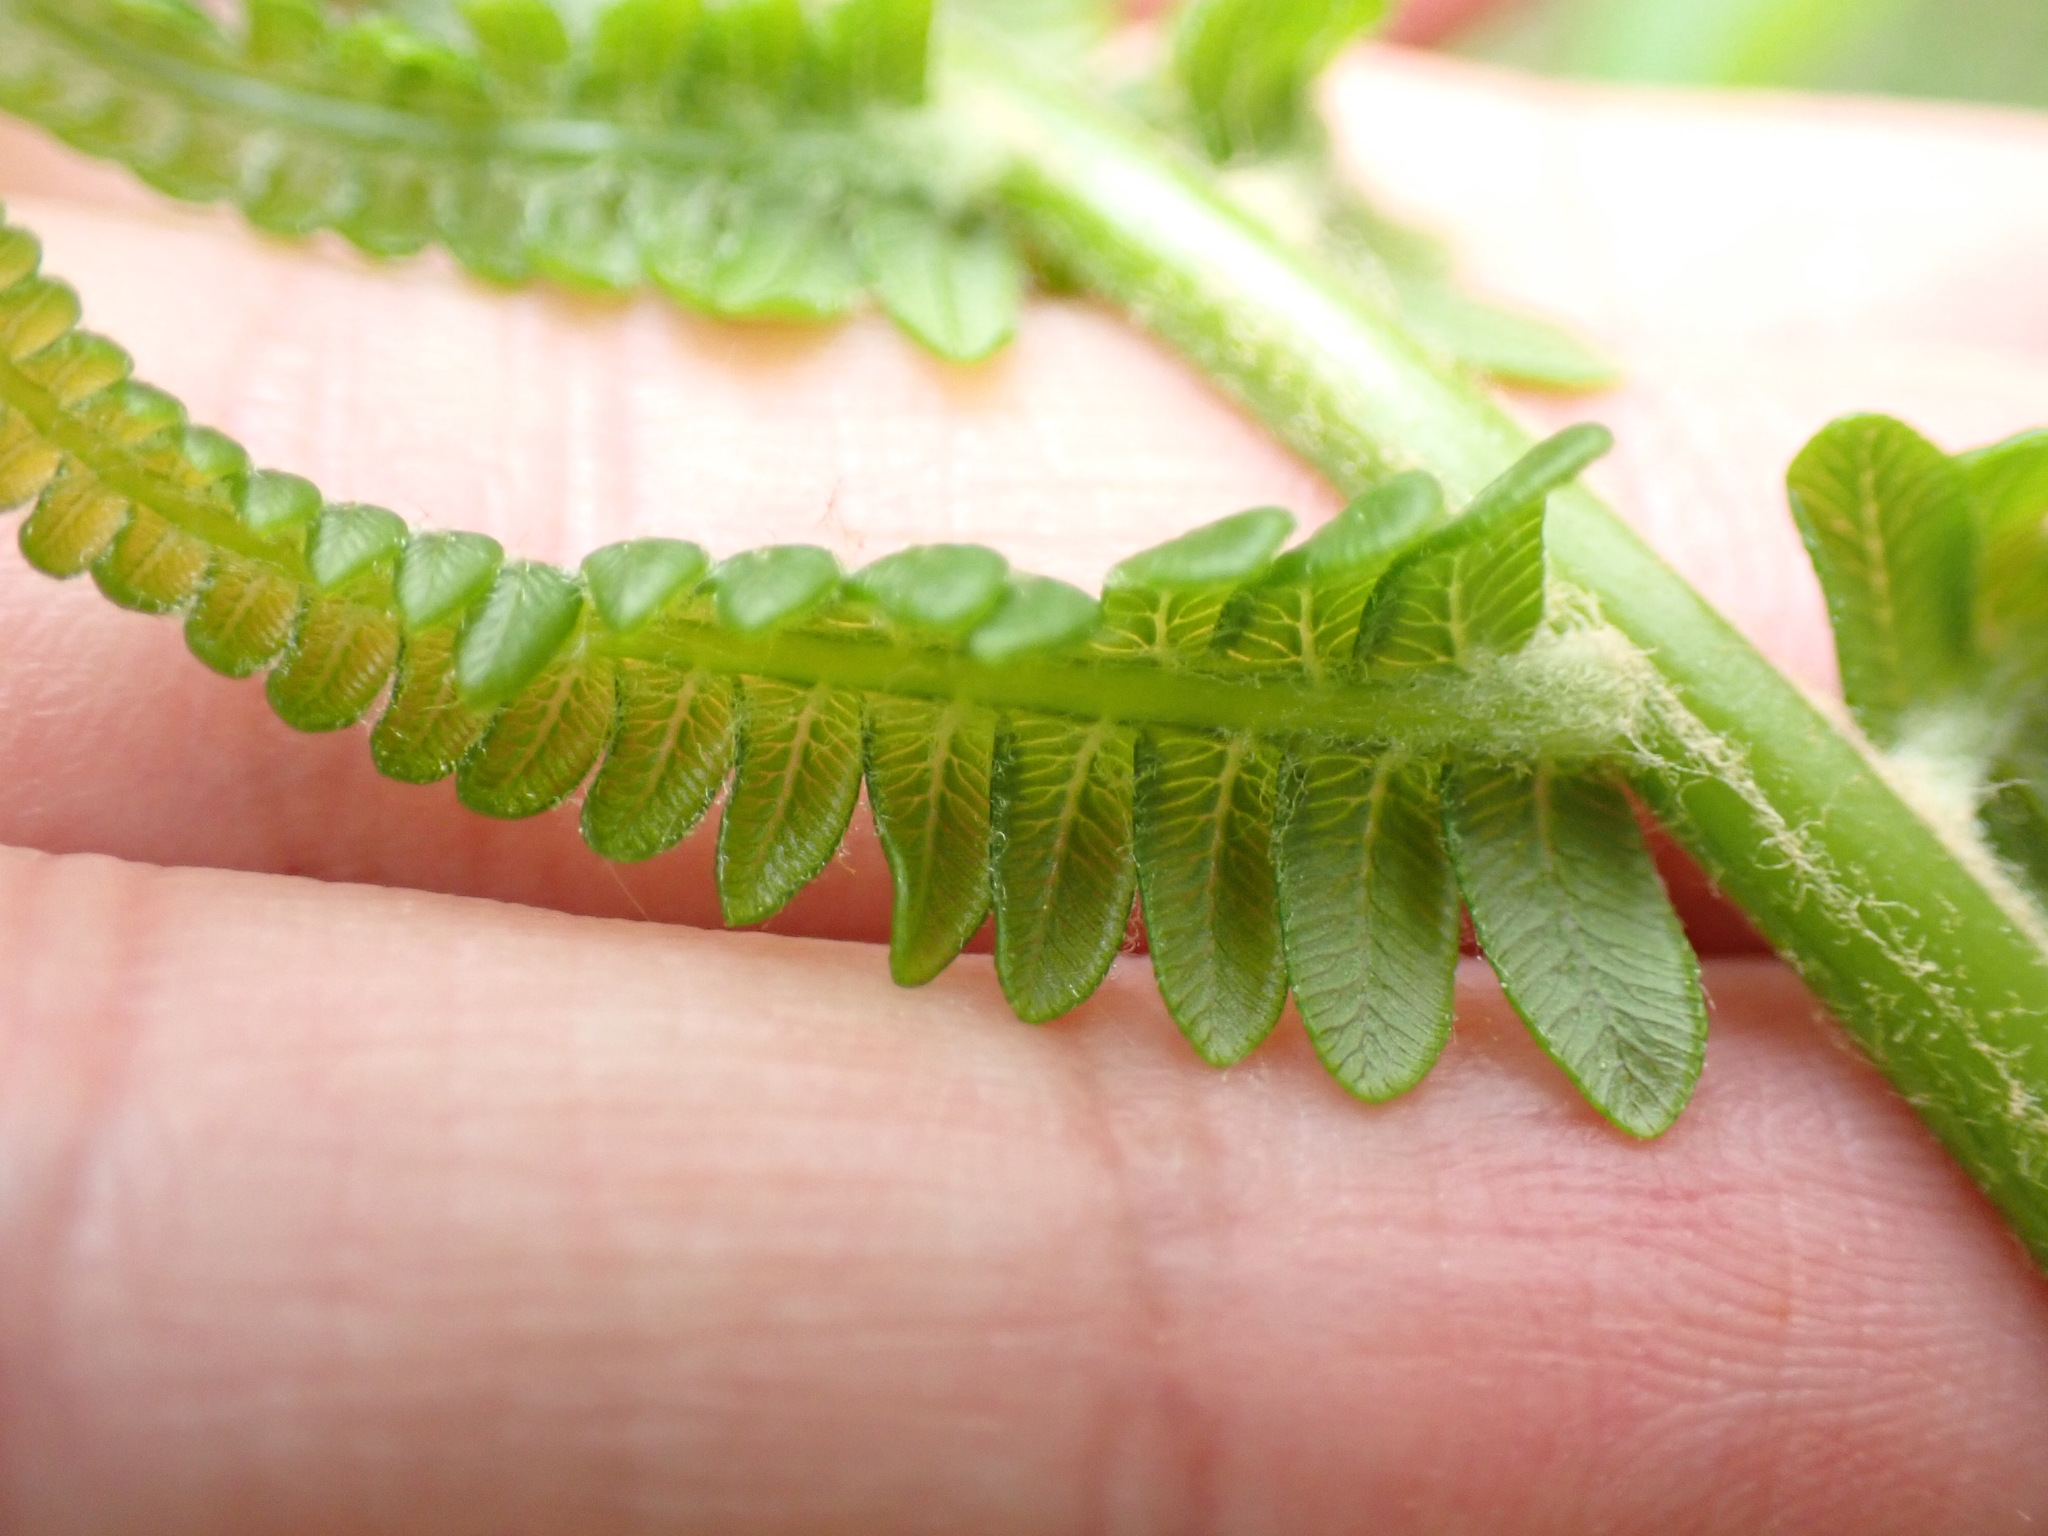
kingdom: Plantae
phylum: Tracheophyta
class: Polypodiopsida
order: Osmundales
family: Osmundaceae
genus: Osmundastrum
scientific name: Osmundastrum cinnamomeum
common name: Cinnamon fern
